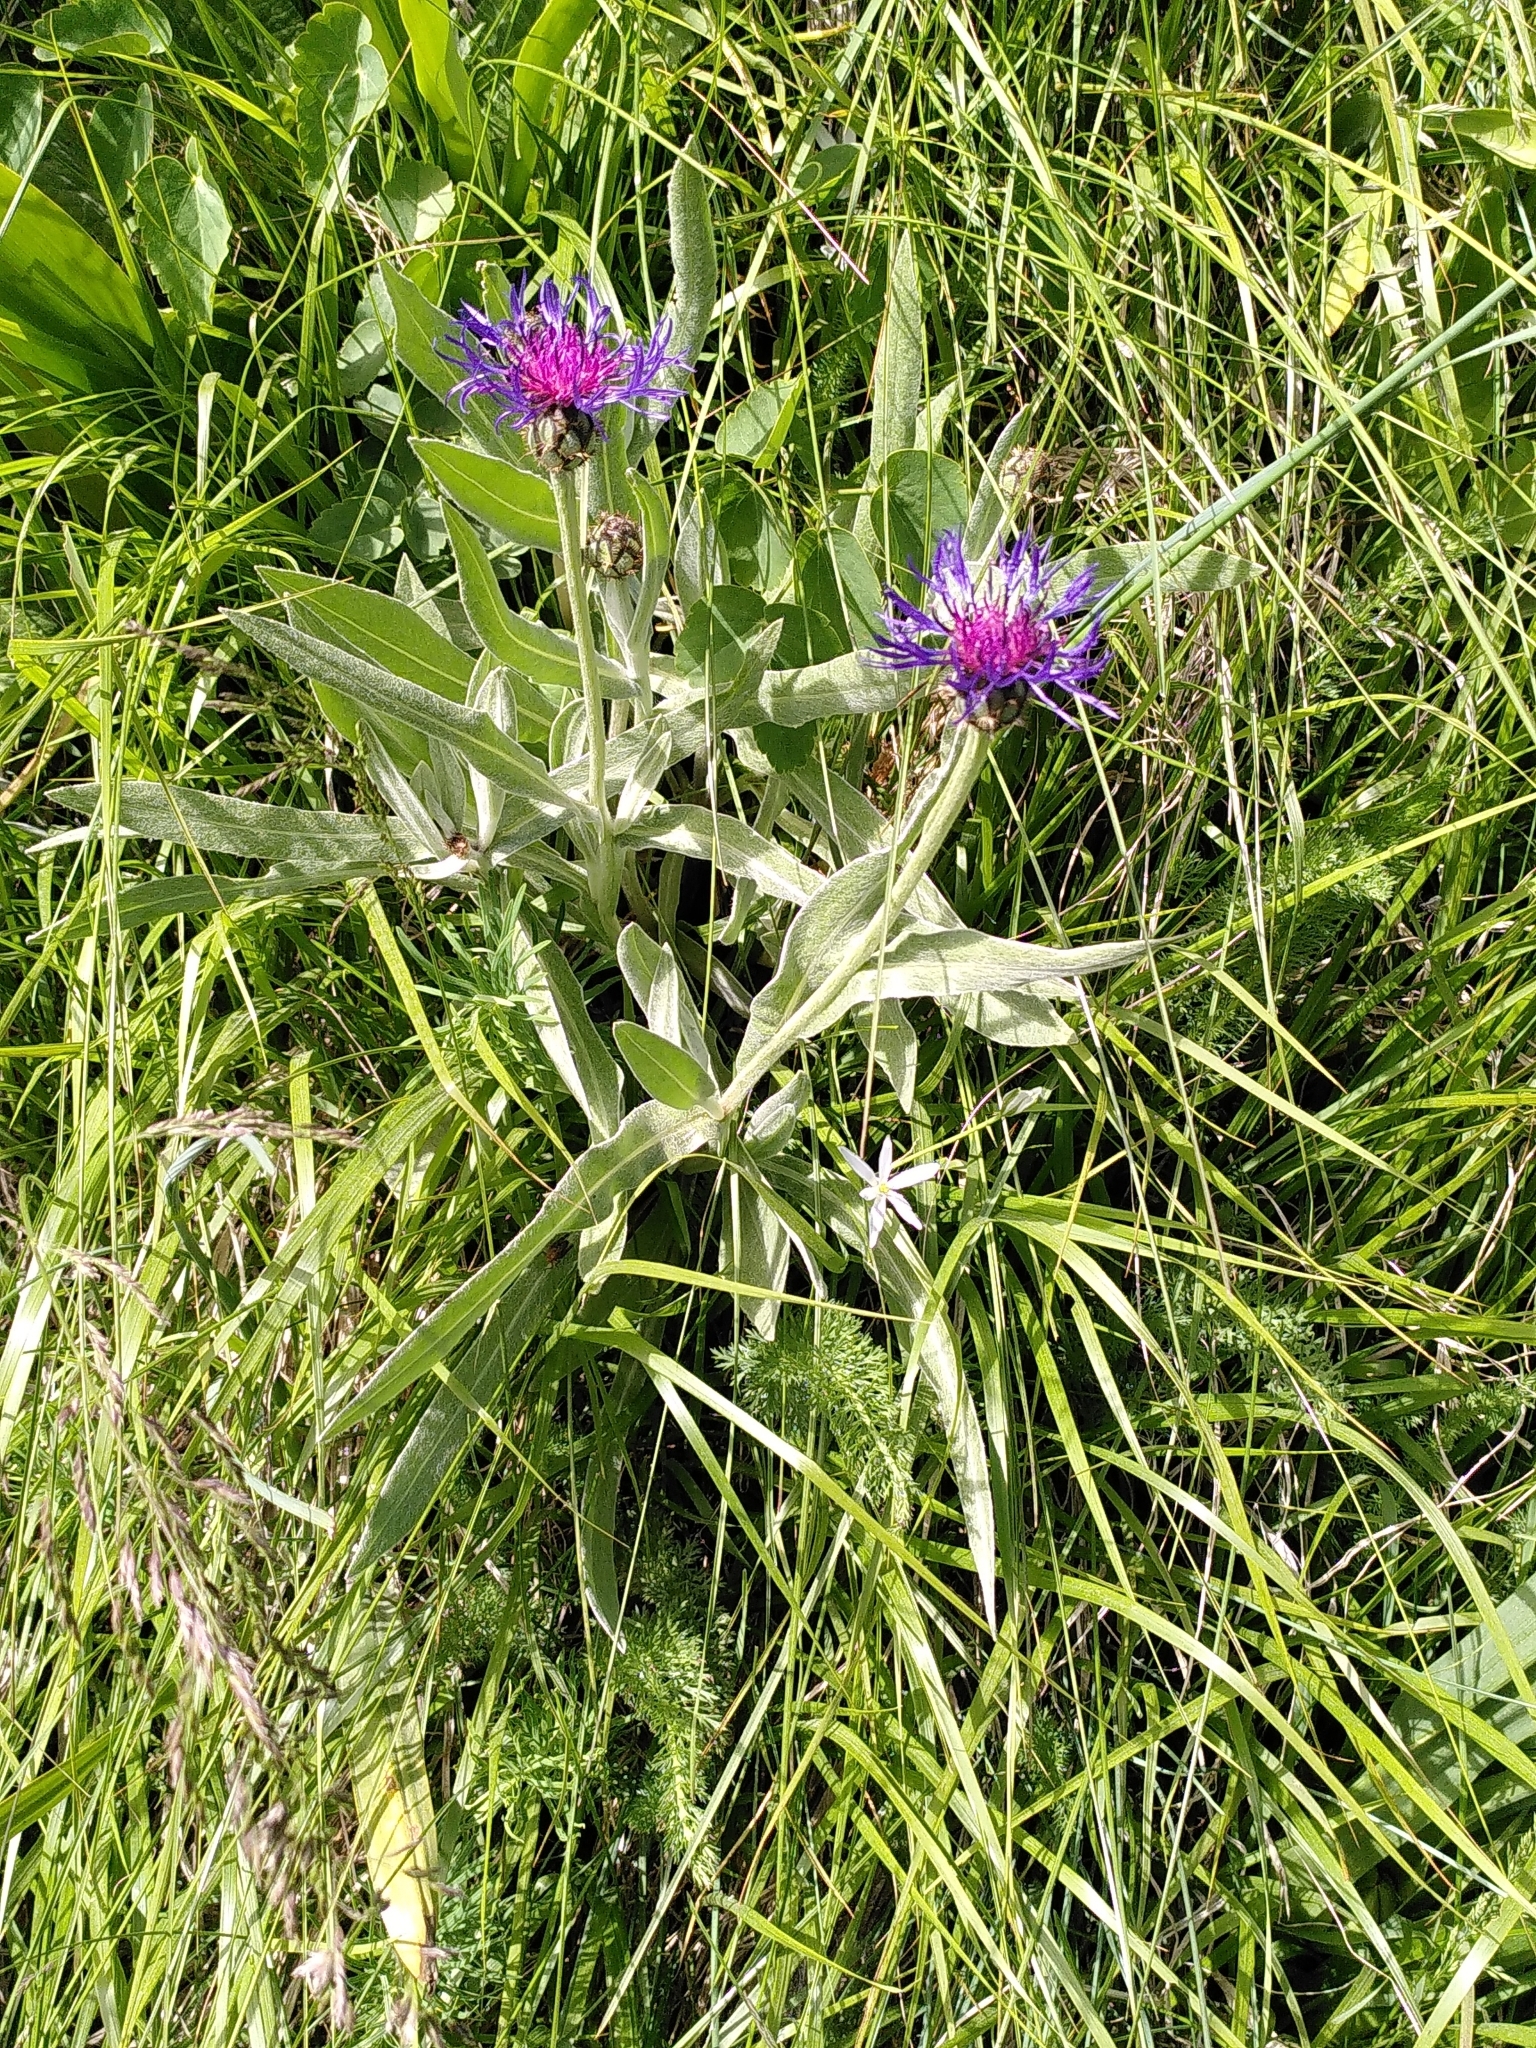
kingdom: Plantae
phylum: Tracheophyta
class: Magnoliopsida
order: Asterales
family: Asteraceae
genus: Centaurea
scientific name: Centaurea montana
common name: Perennial cornflower
